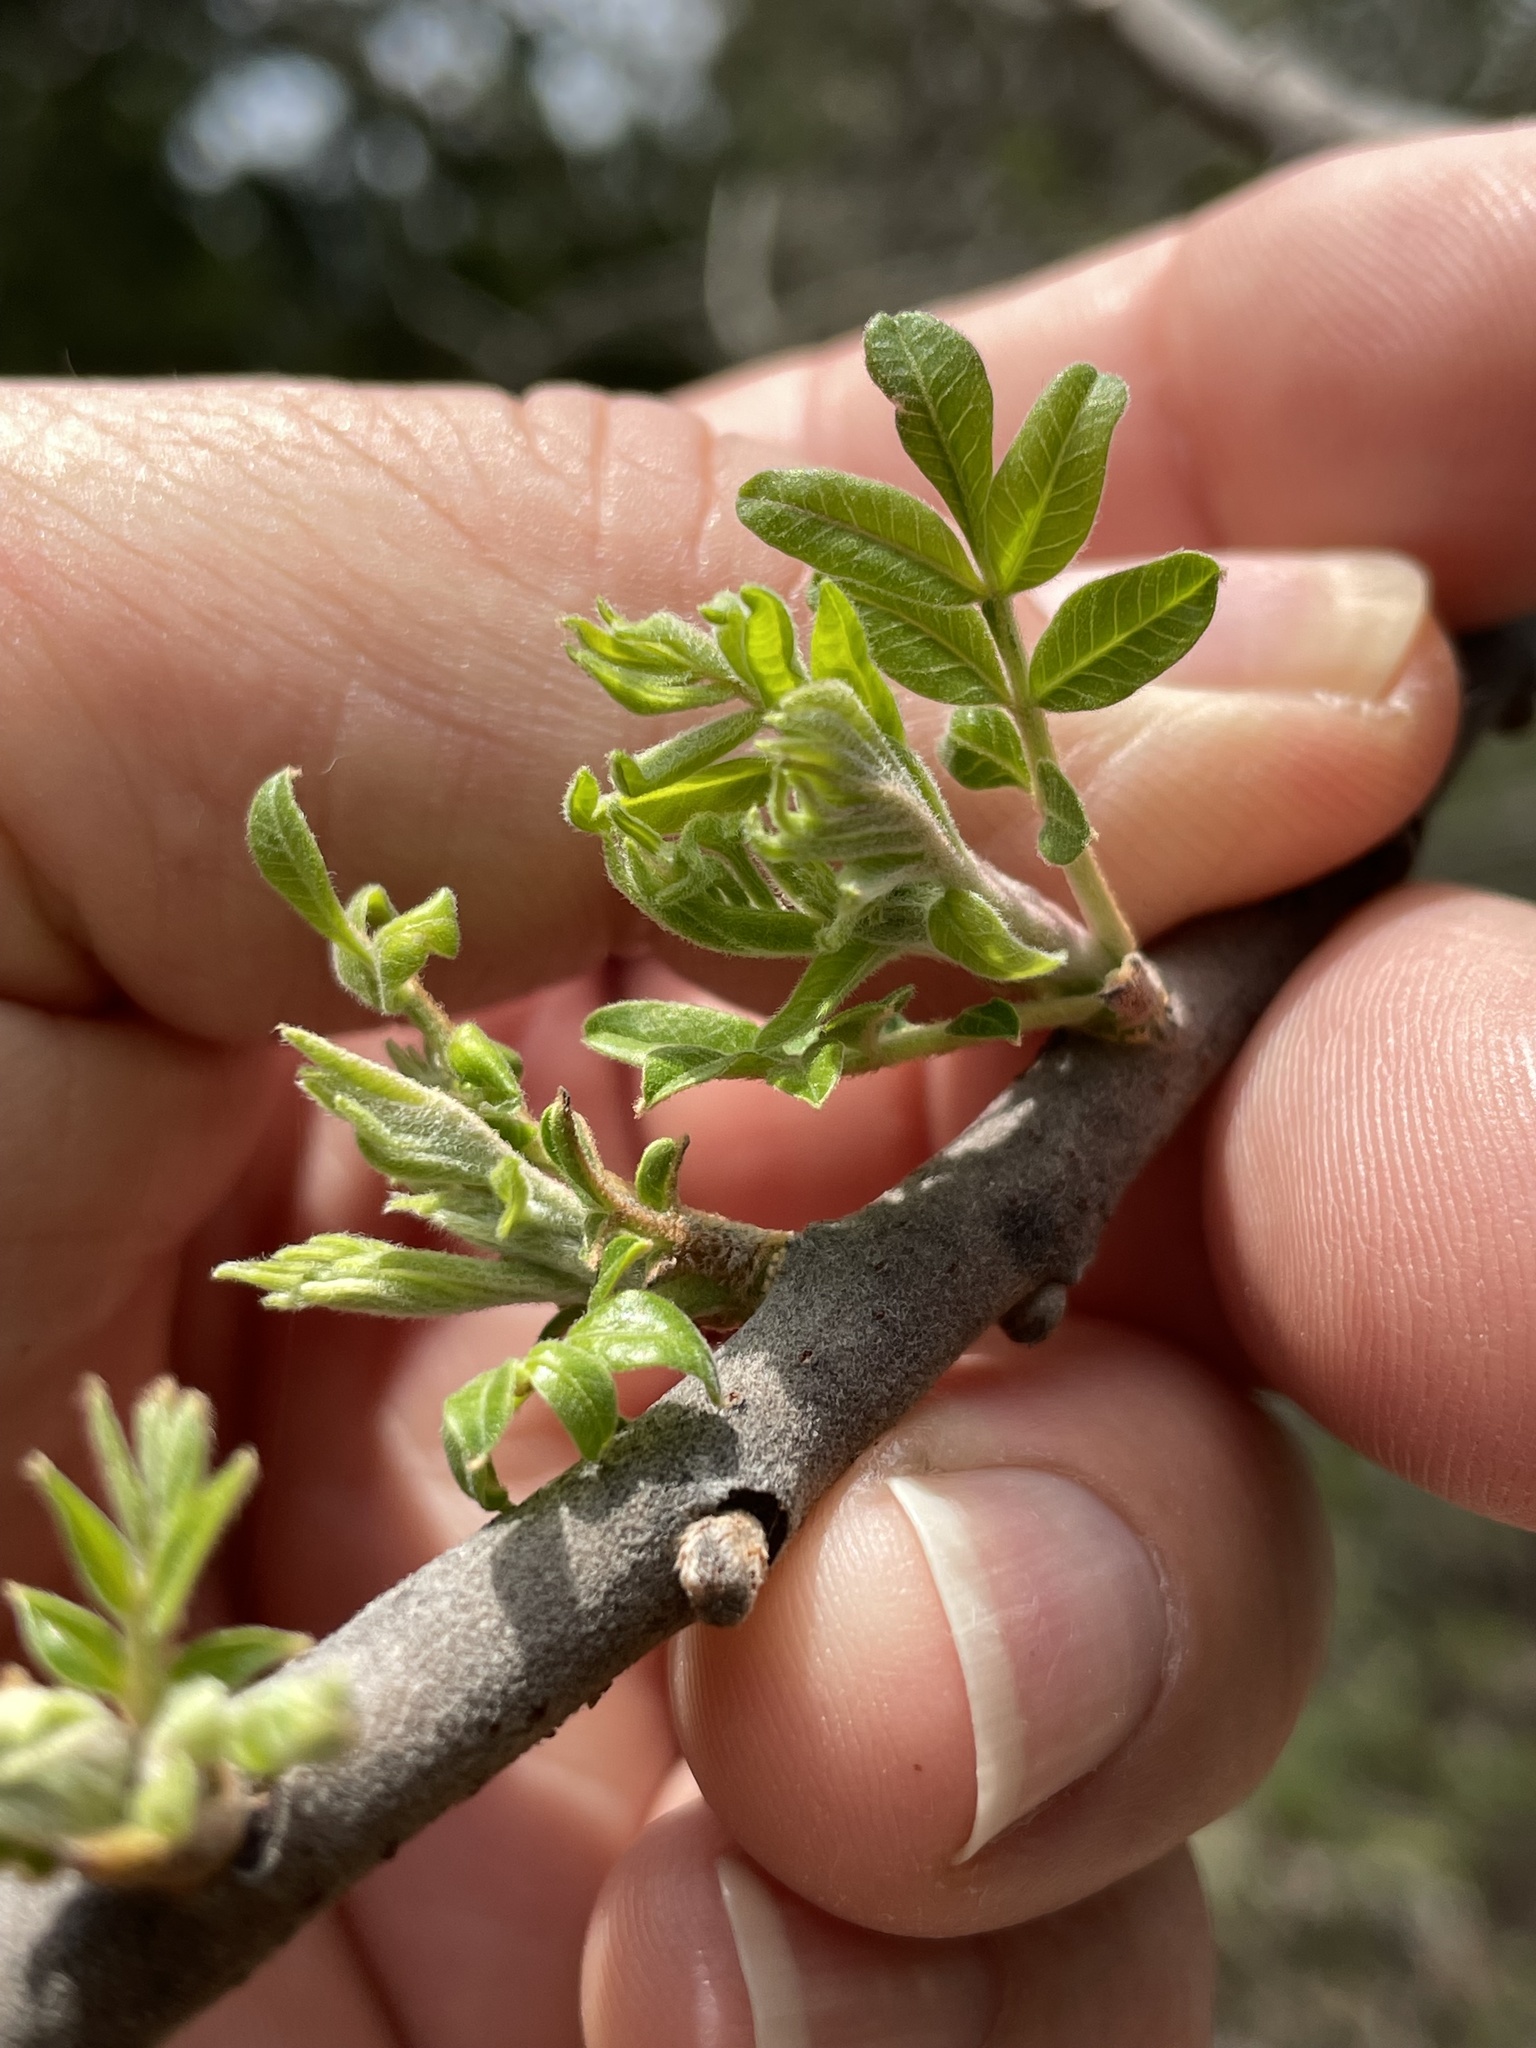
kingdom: Plantae
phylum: Tracheophyta
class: Magnoliopsida
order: Sapindales
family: Anacardiaceae
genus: Rhus
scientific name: Rhus lanceolata
